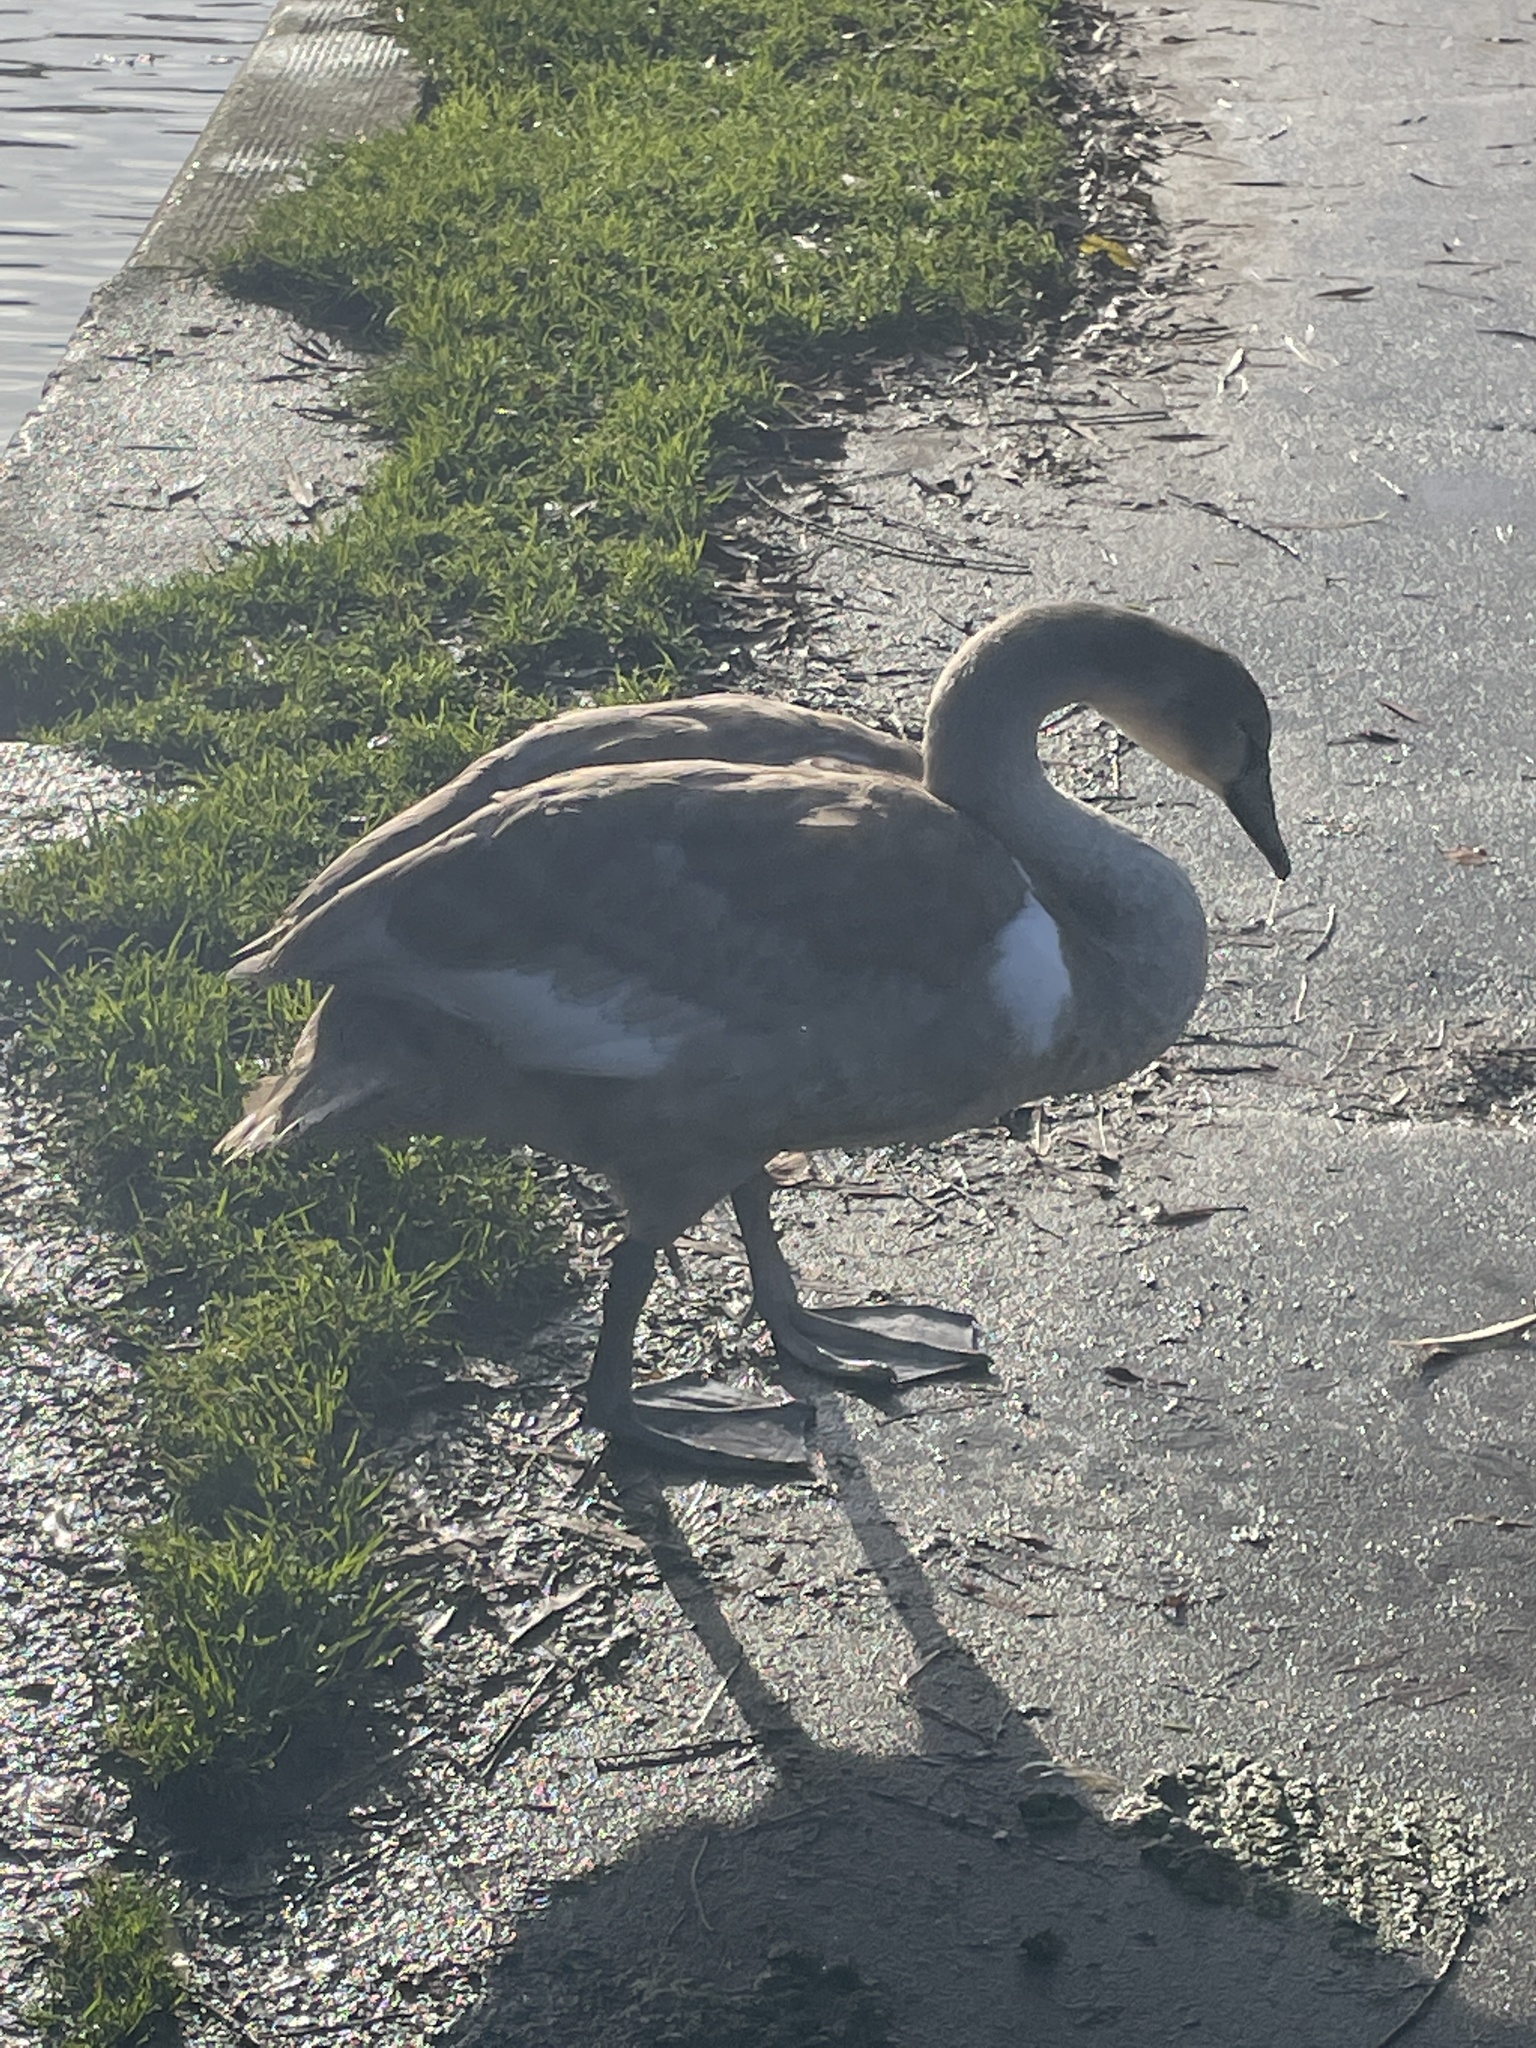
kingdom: Animalia
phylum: Chordata
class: Aves
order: Anseriformes
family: Anatidae
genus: Cygnus
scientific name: Cygnus olor
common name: Mute swan
